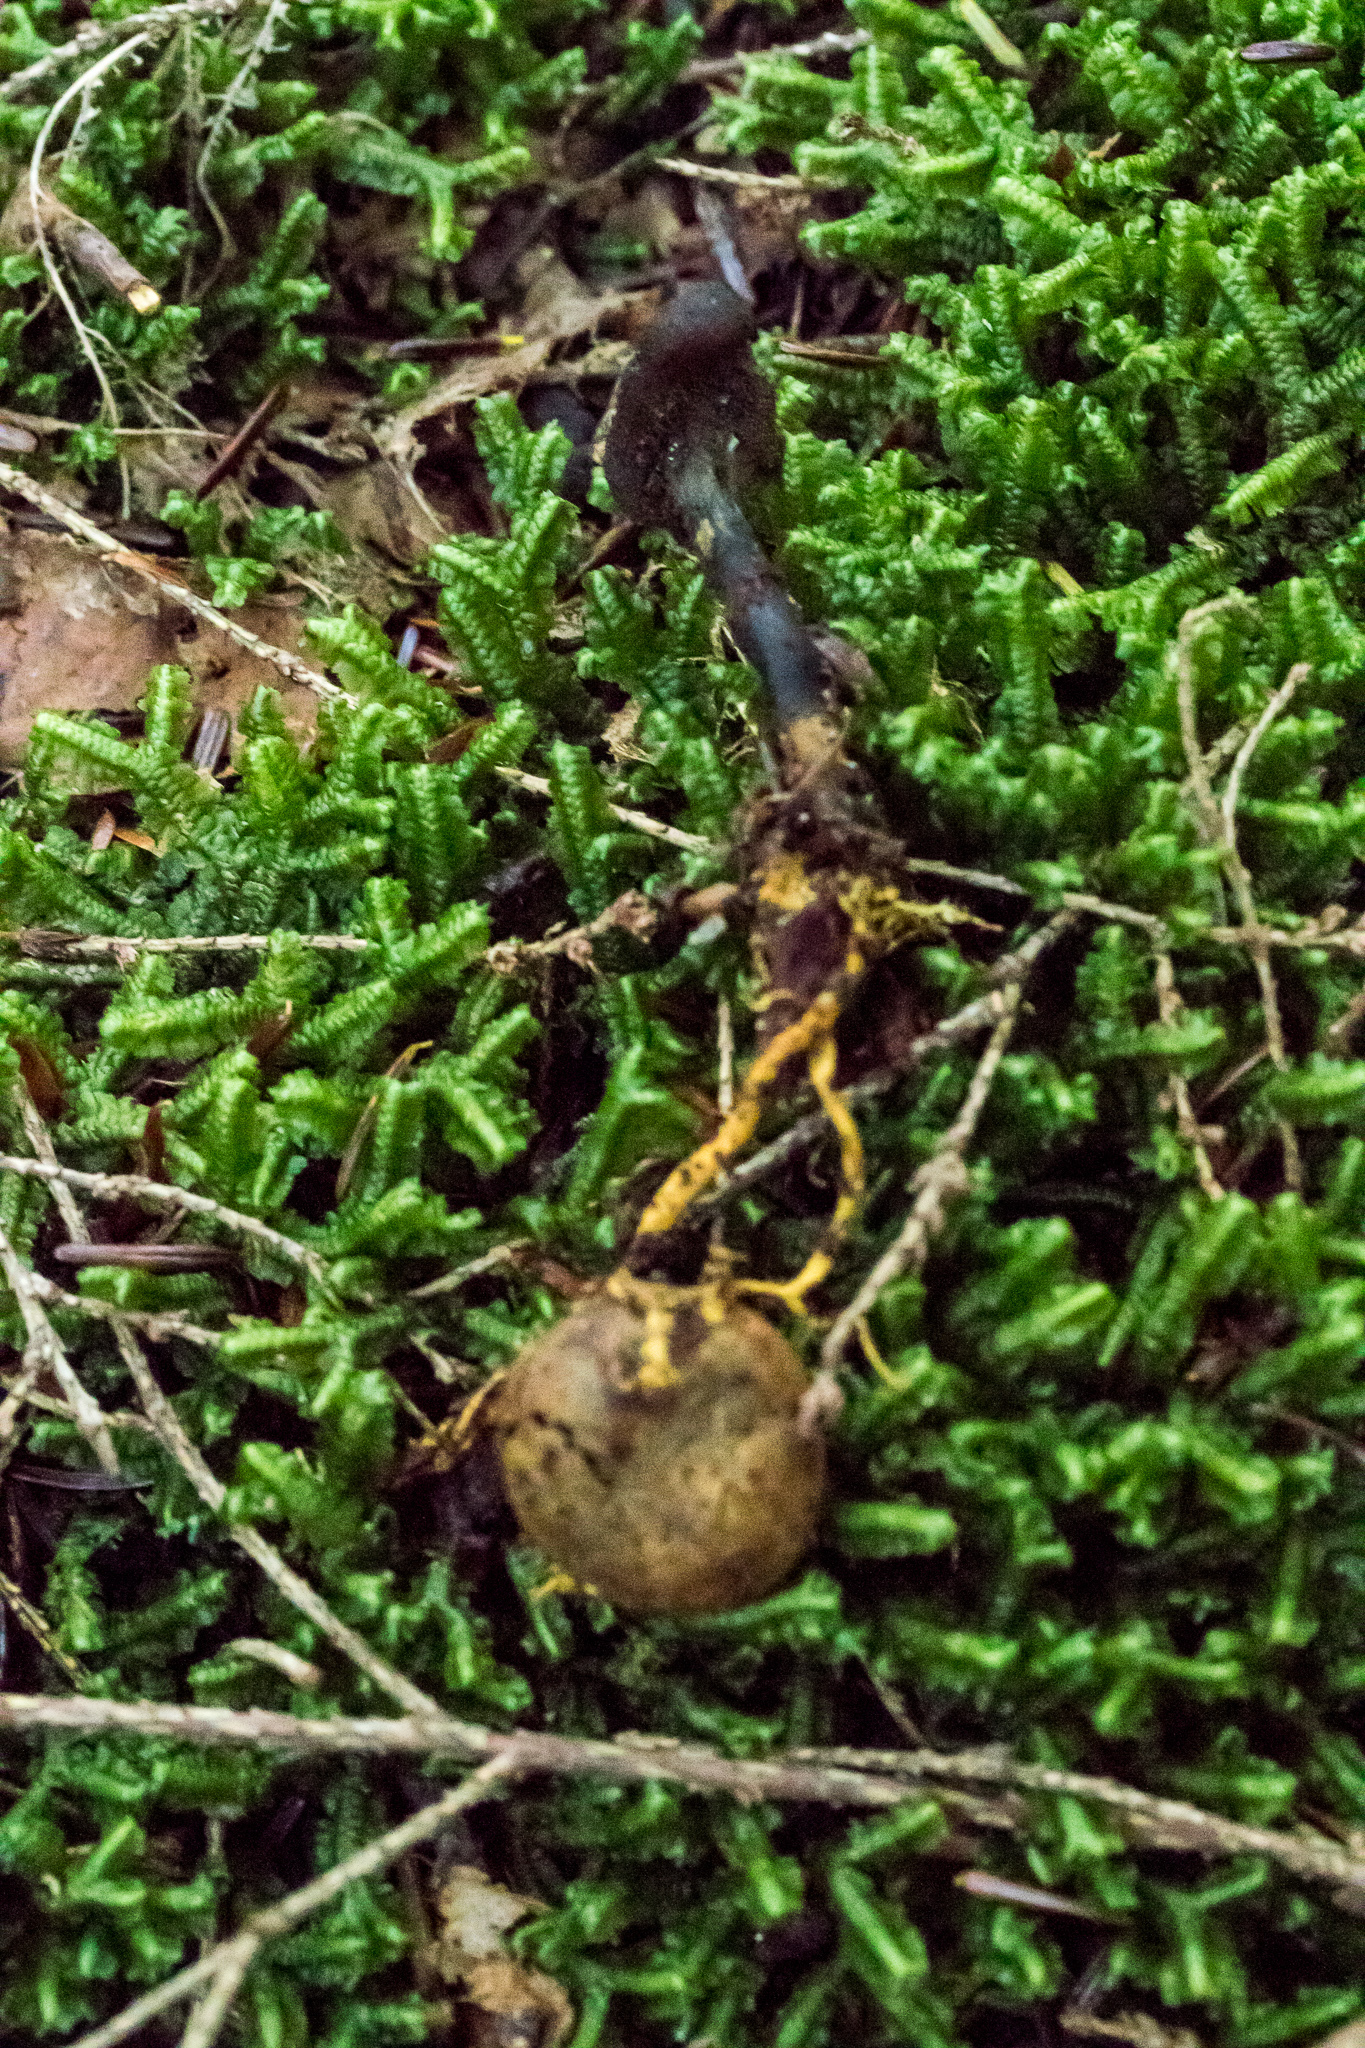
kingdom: Fungi
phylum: Ascomycota
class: Sordariomycetes
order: Hypocreales
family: Ophiocordycipitaceae
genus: Tolypocladium
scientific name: Tolypocladium ophioglossoides
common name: Snaketongue truffleclub
